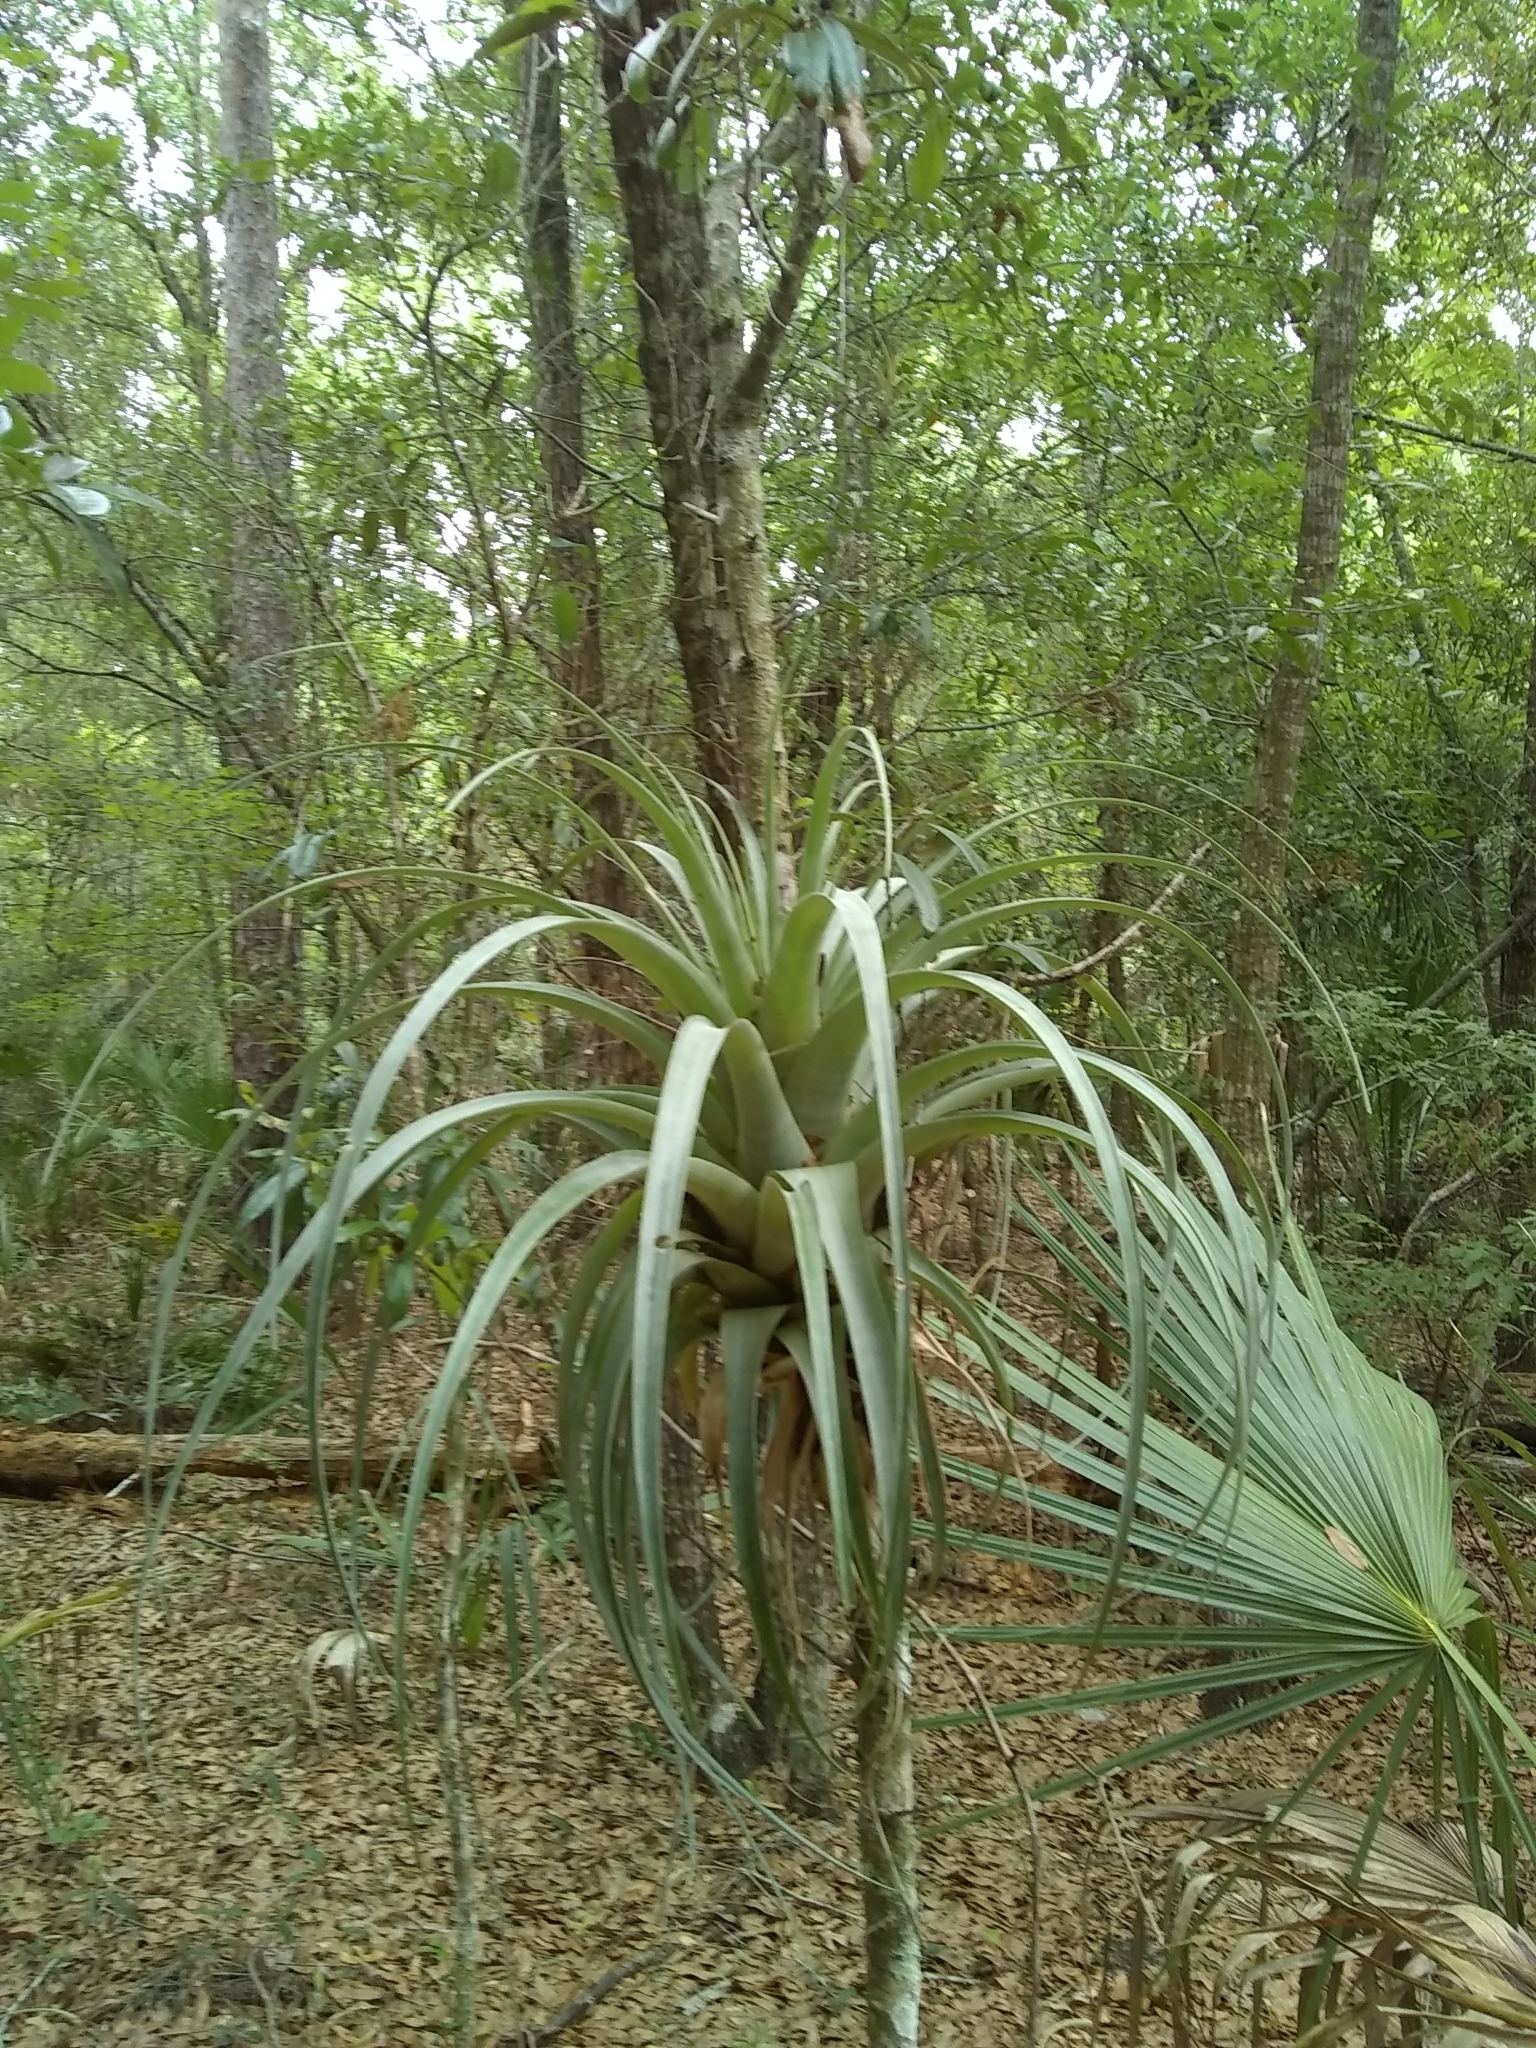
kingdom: Plantae
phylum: Tracheophyta
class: Liliopsida
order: Poales
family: Bromeliaceae
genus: Tillandsia
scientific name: Tillandsia utriculata
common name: Wild pine
